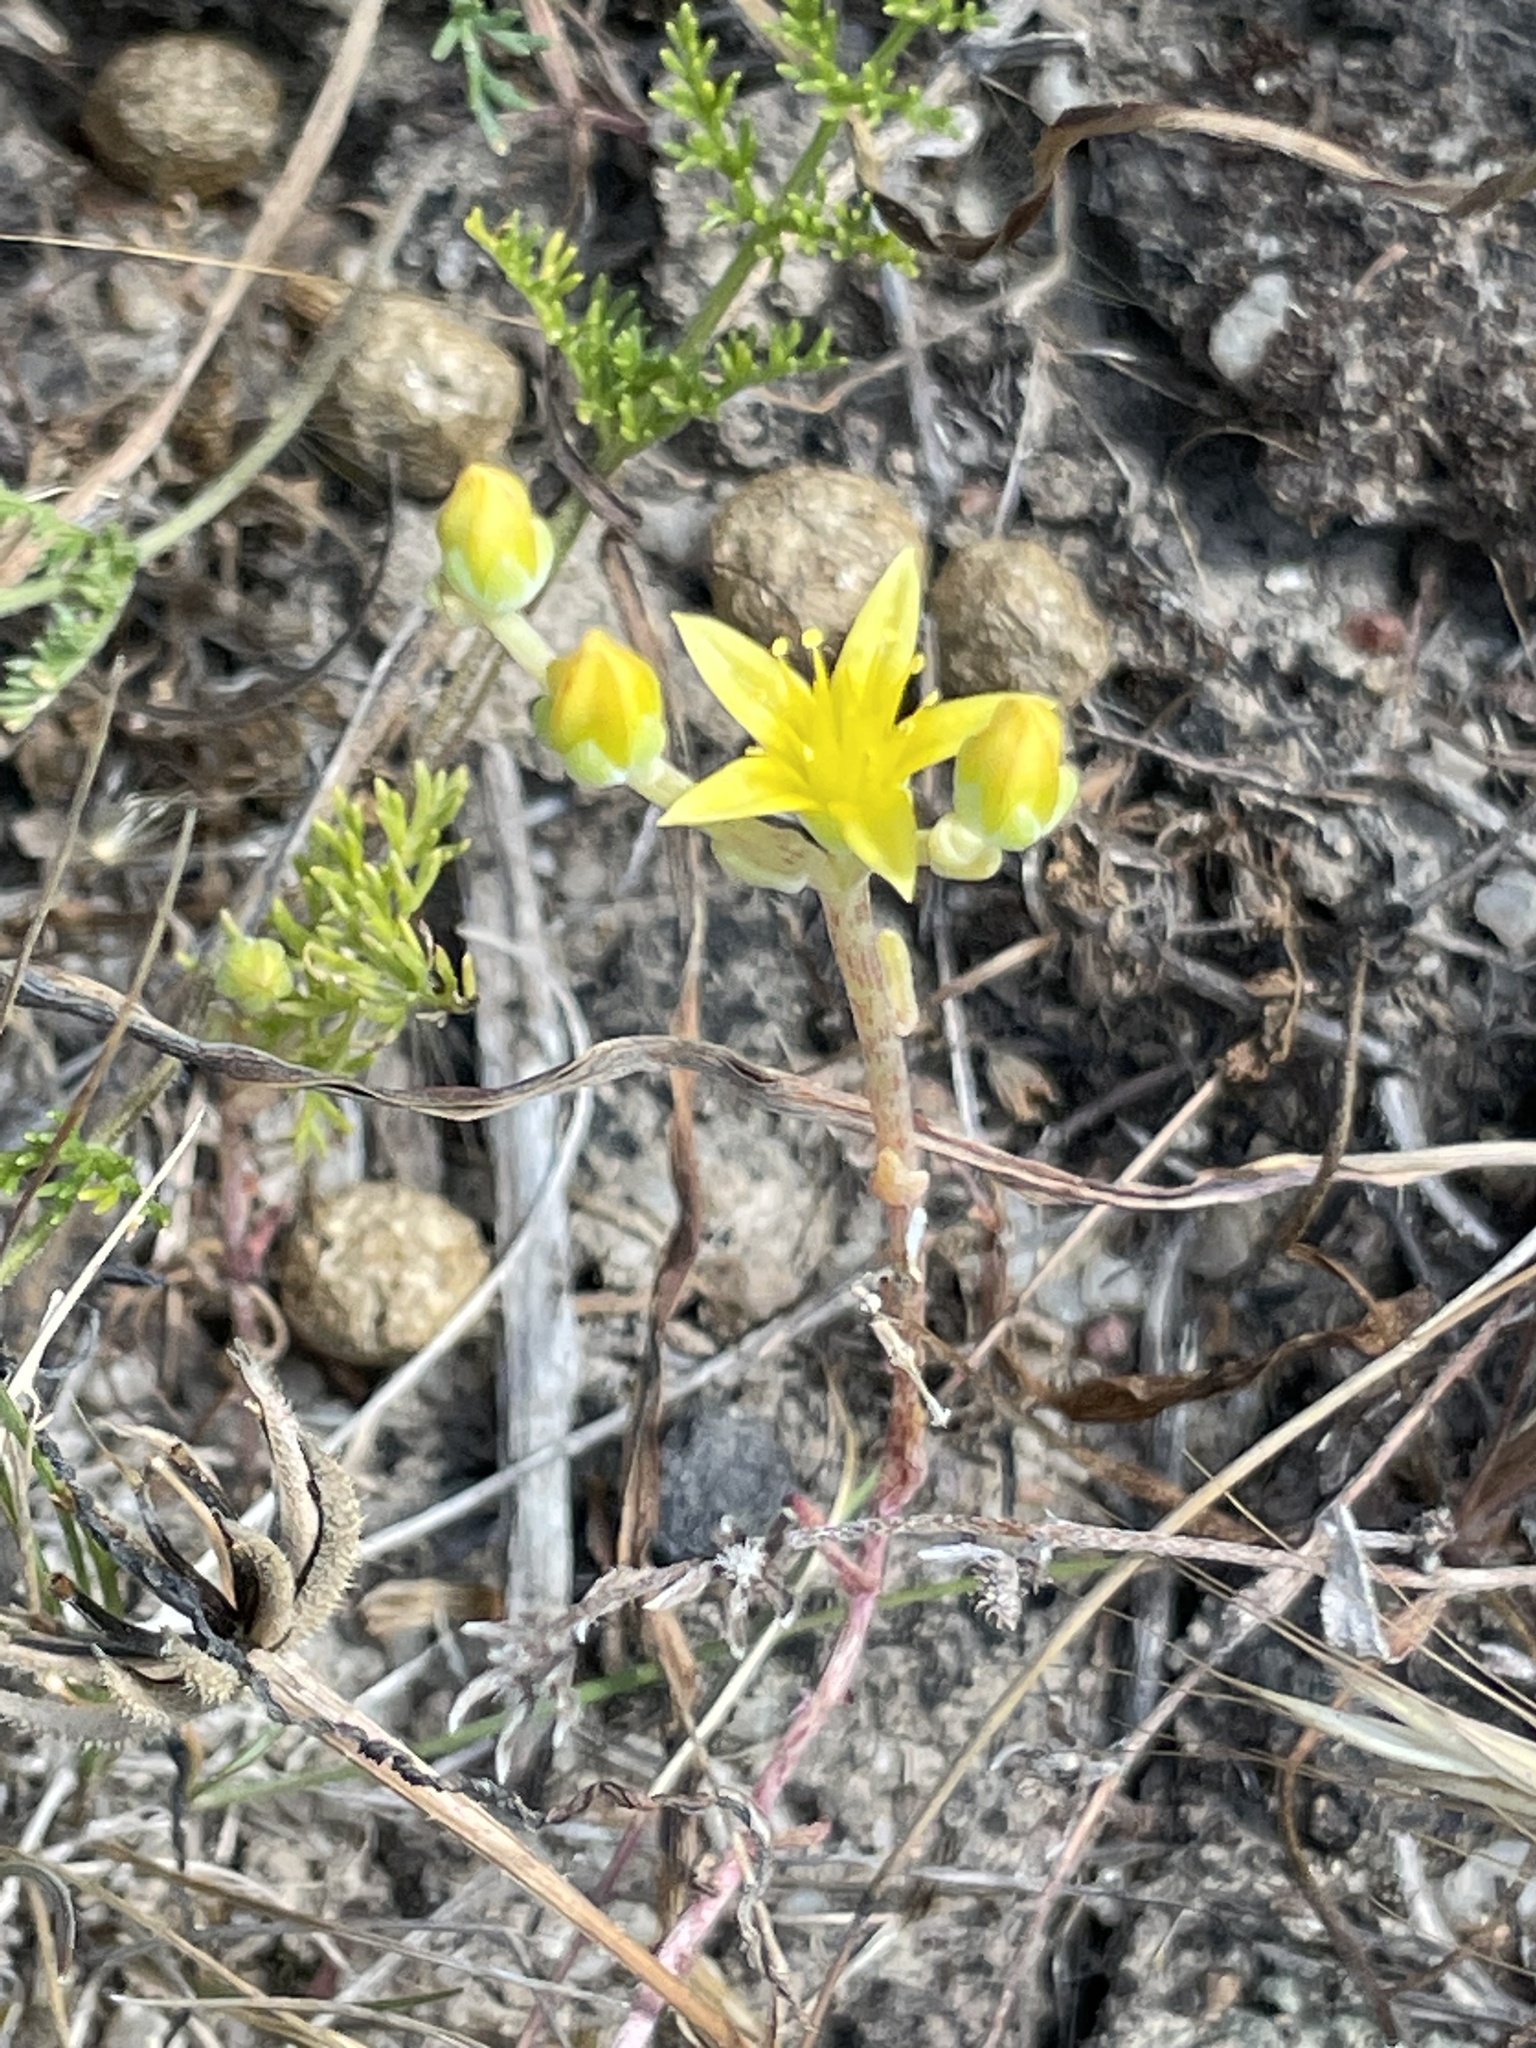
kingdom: Plantae
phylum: Tracheophyta
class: Magnoliopsida
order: Saxifragales
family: Crassulaceae
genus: Dudleya
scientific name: Dudleya variegata
